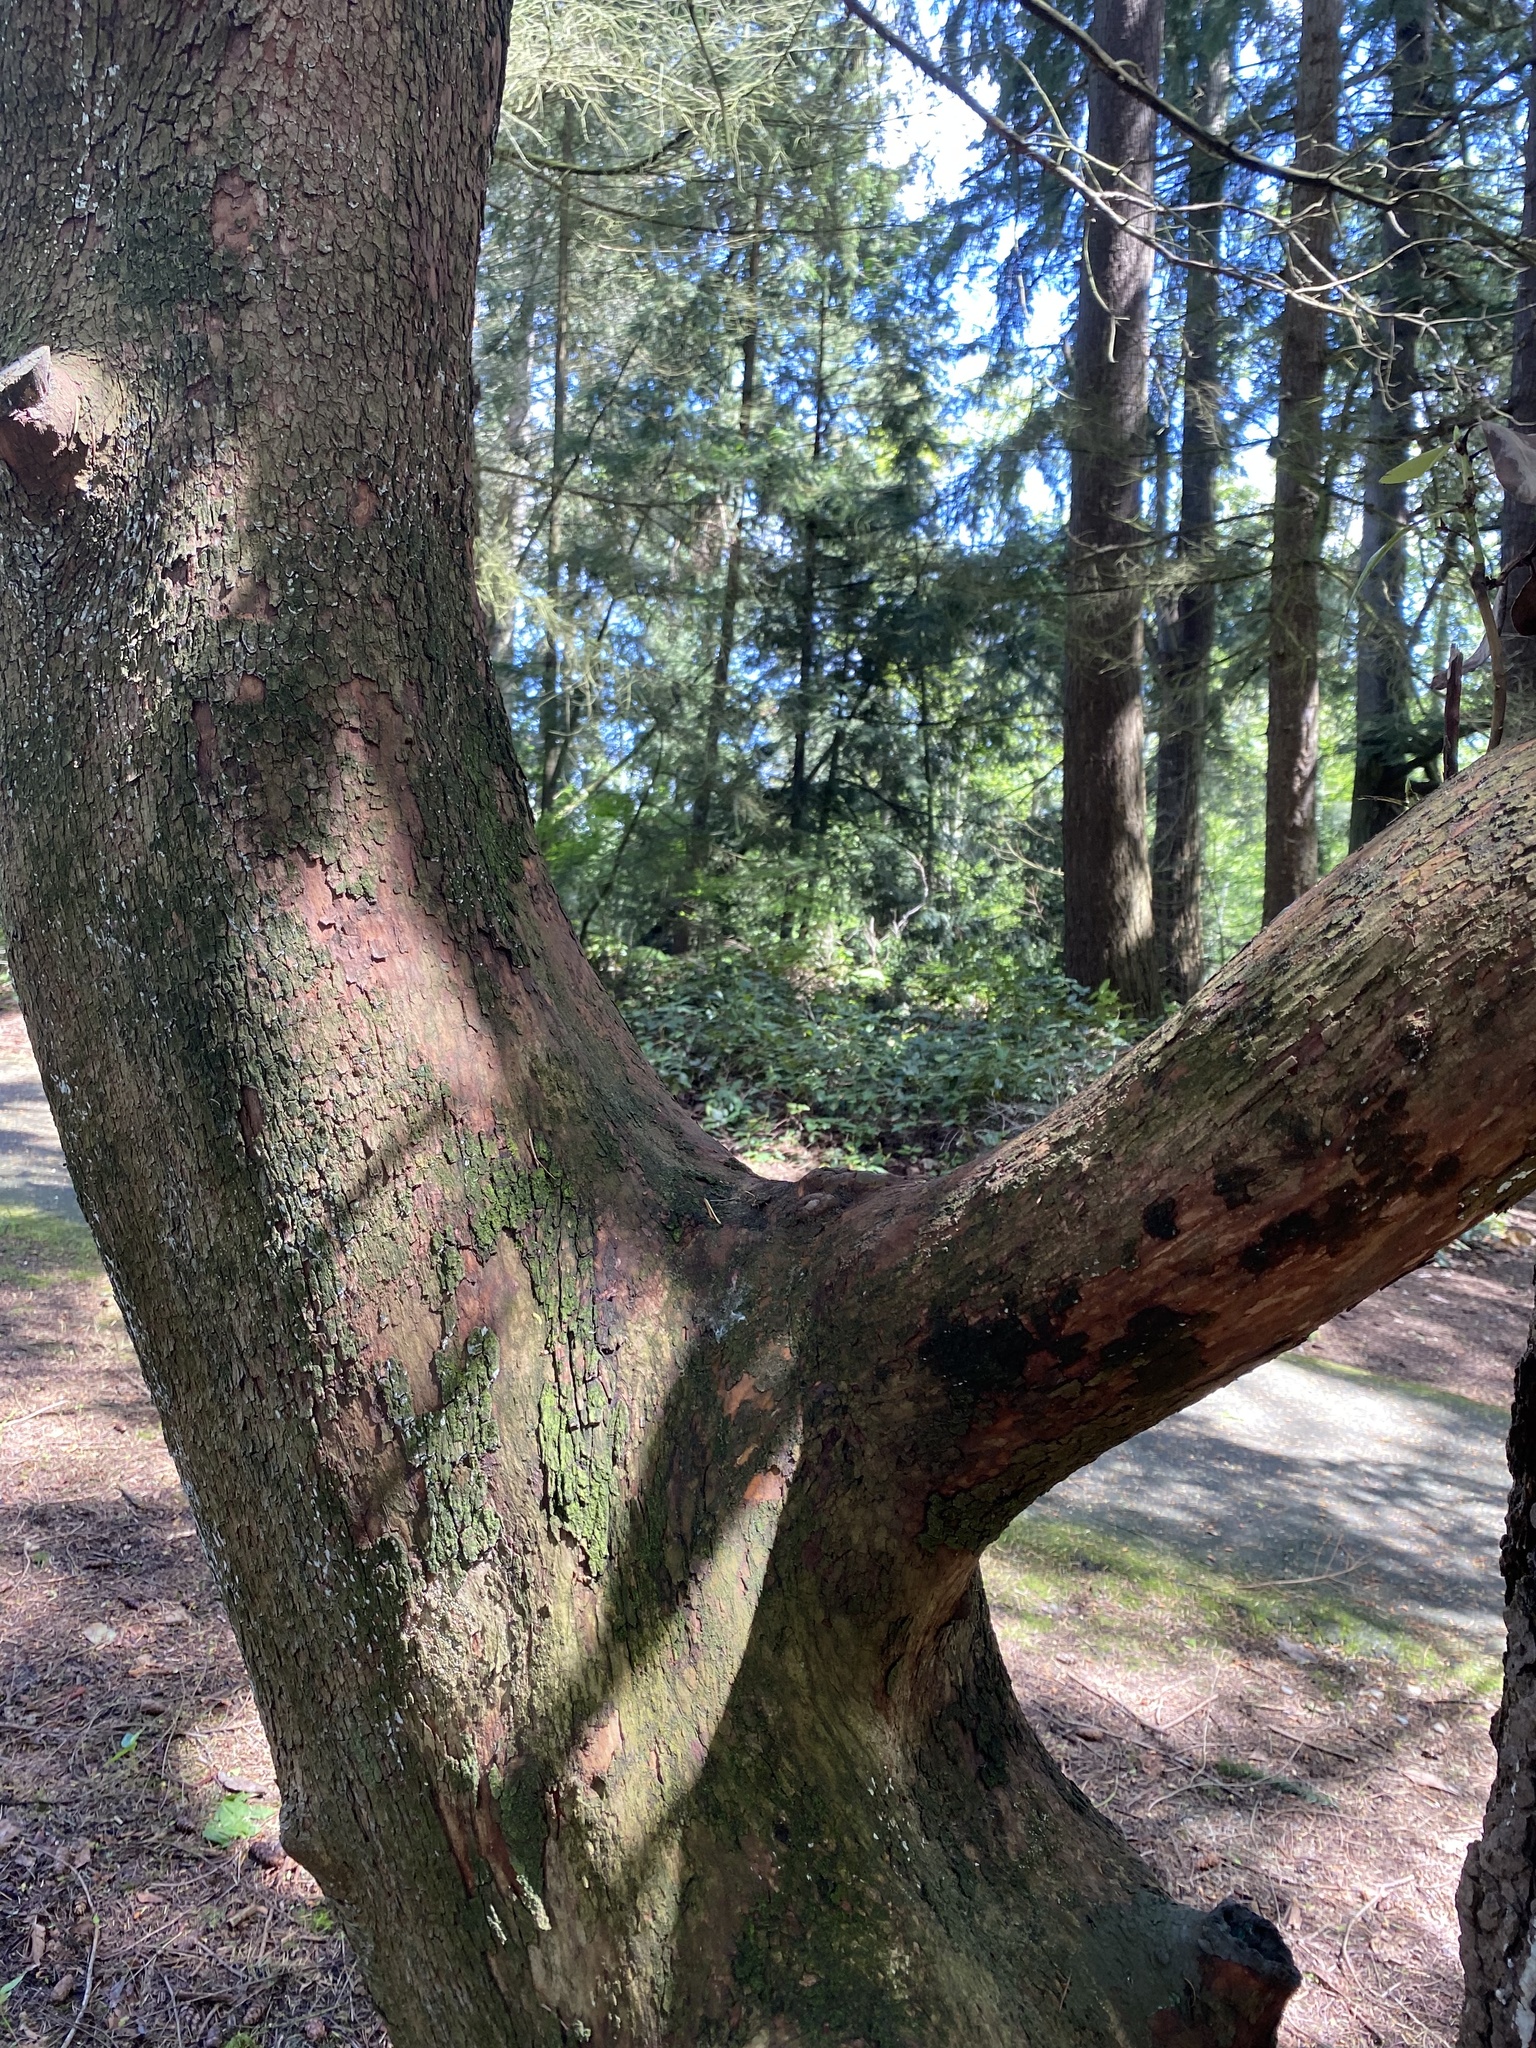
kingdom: Plantae
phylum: Tracheophyta
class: Magnoliopsida
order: Ericales
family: Ericaceae
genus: Arbutus
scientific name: Arbutus menziesii
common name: Pacific madrone
